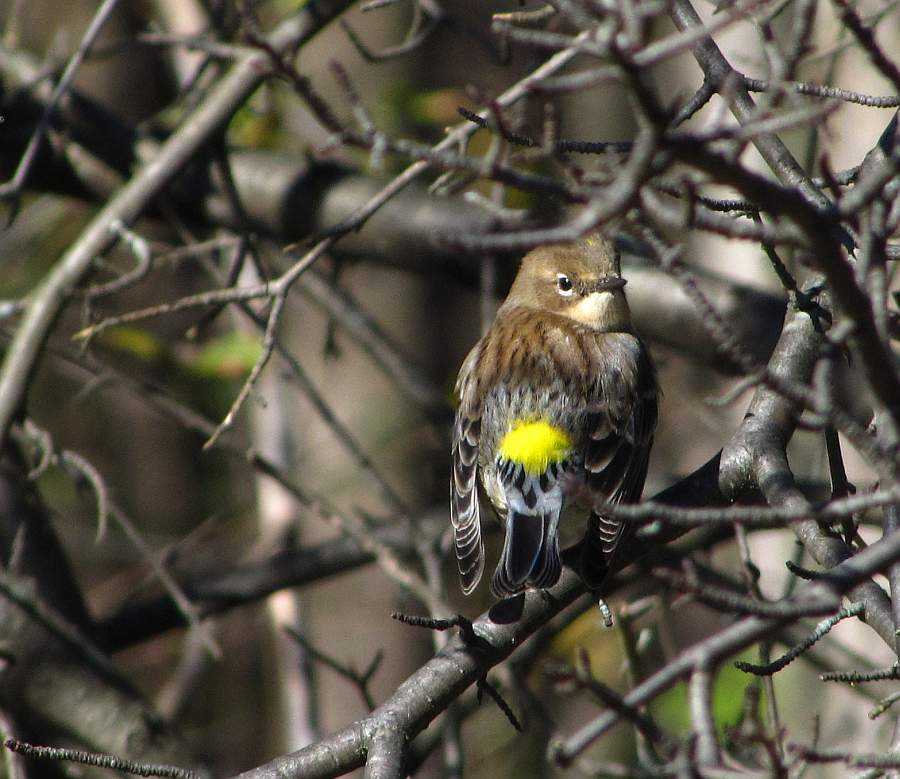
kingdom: Animalia
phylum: Chordata
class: Aves
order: Passeriformes
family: Parulidae
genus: Setophaga
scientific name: Setophaga coronata
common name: Myrtle warbler
